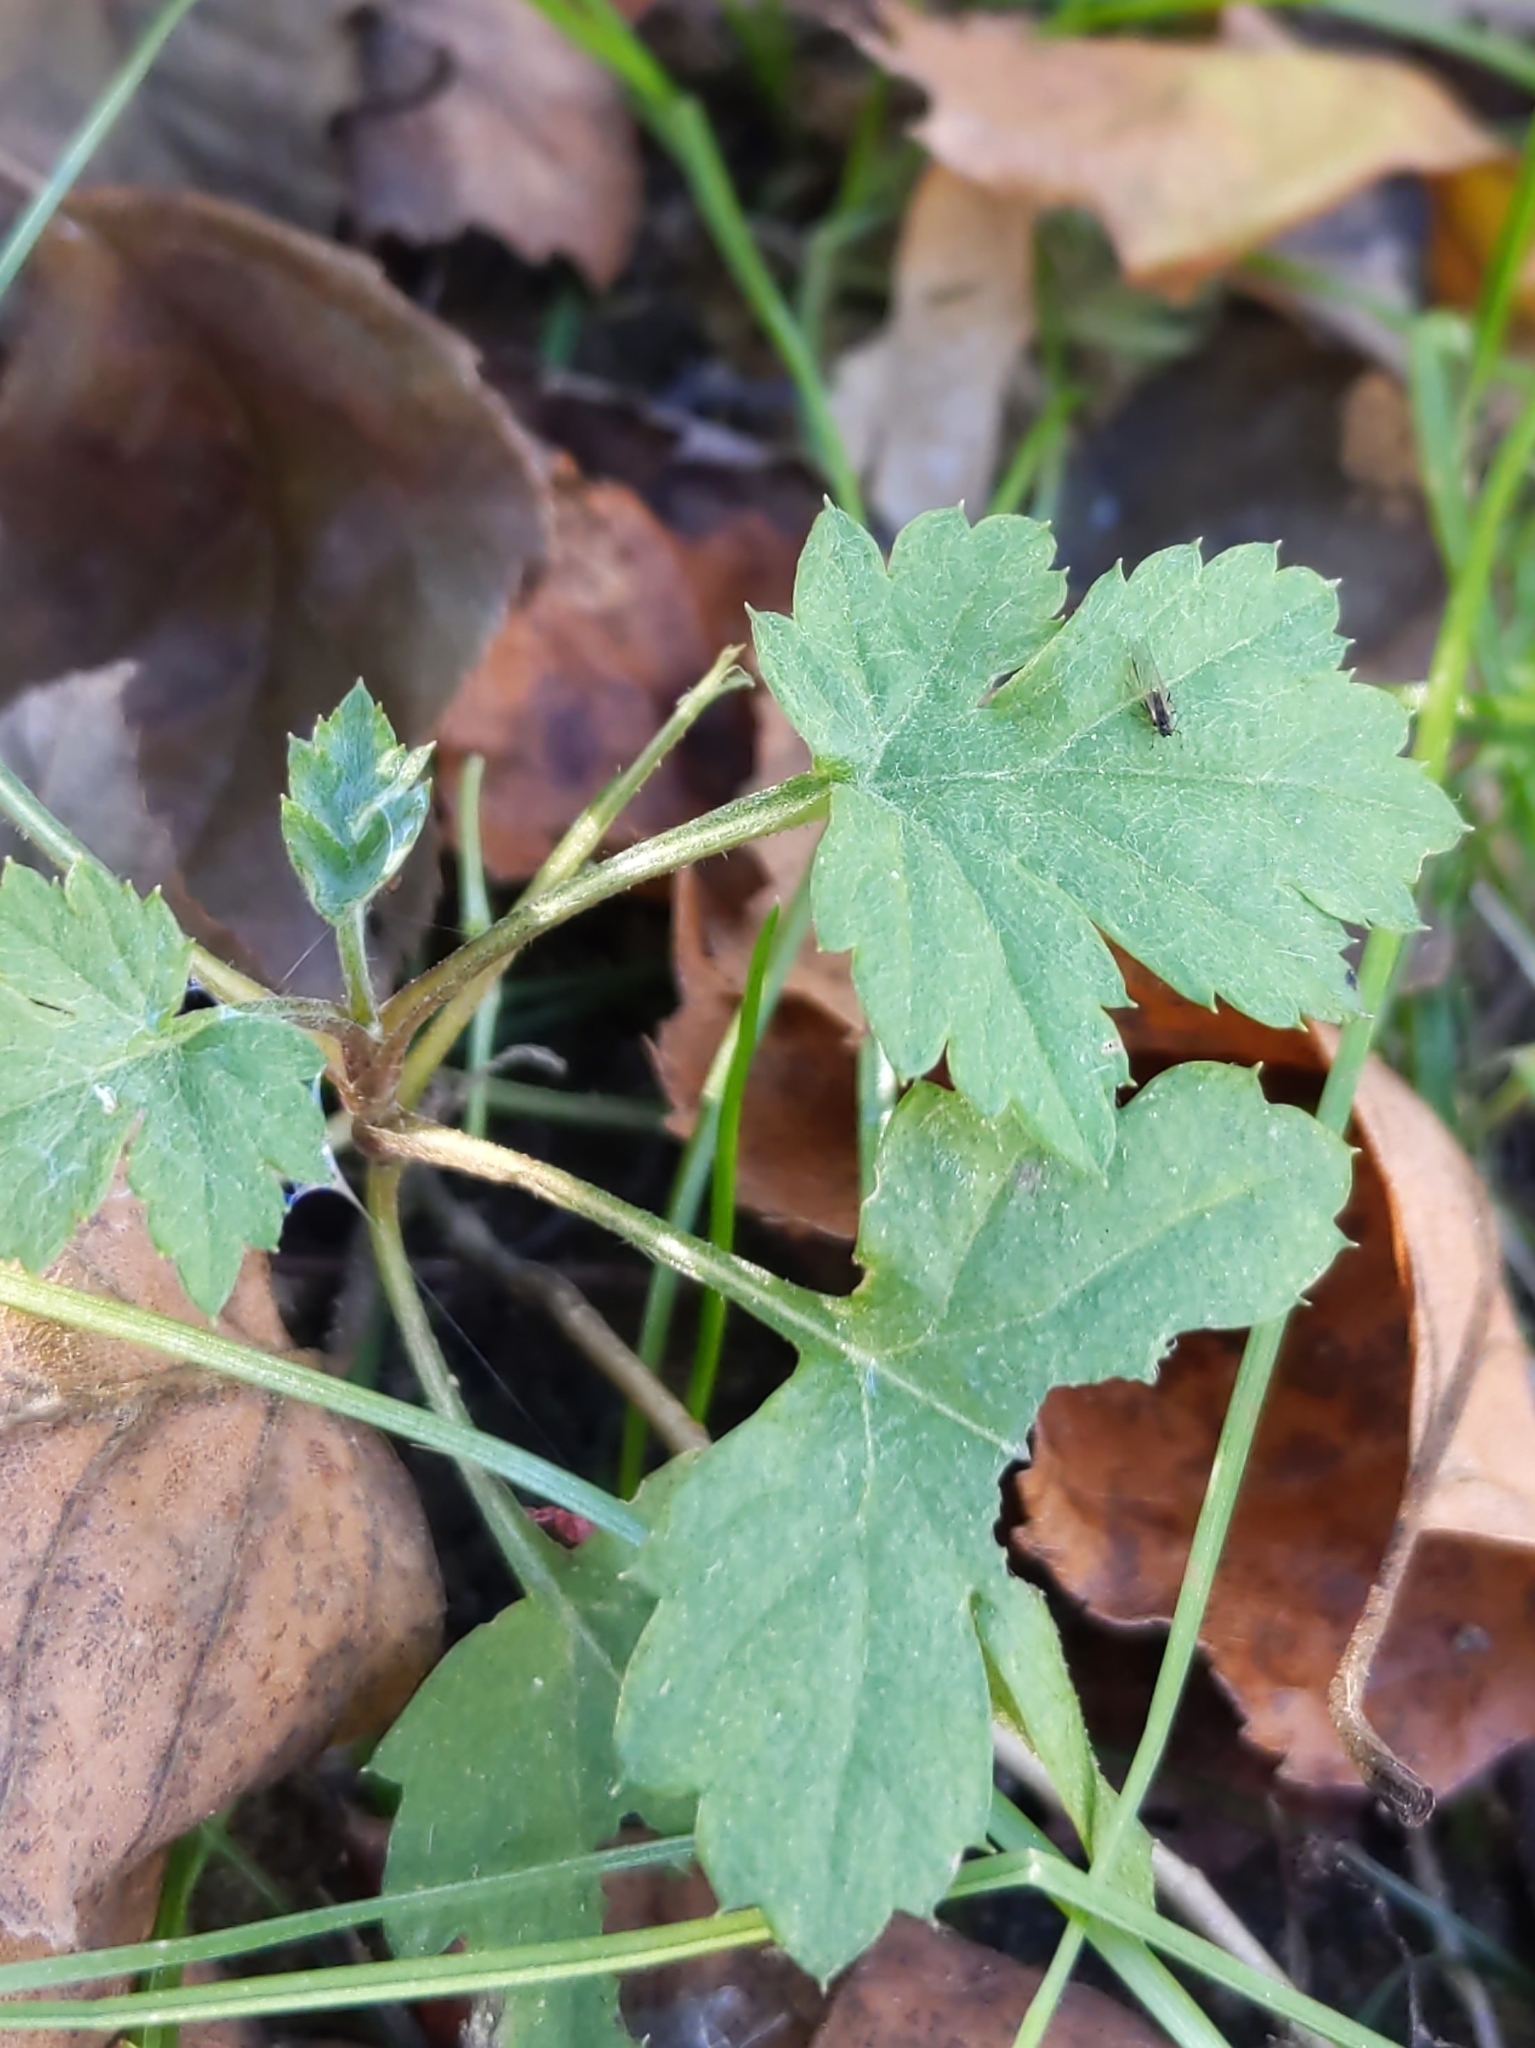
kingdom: Plantae
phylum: Tracheophyta
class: Magnoliopsida
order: Asterales
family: Asteraceae
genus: Artemisia
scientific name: Artemisia vulgaris
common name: Mugwort
